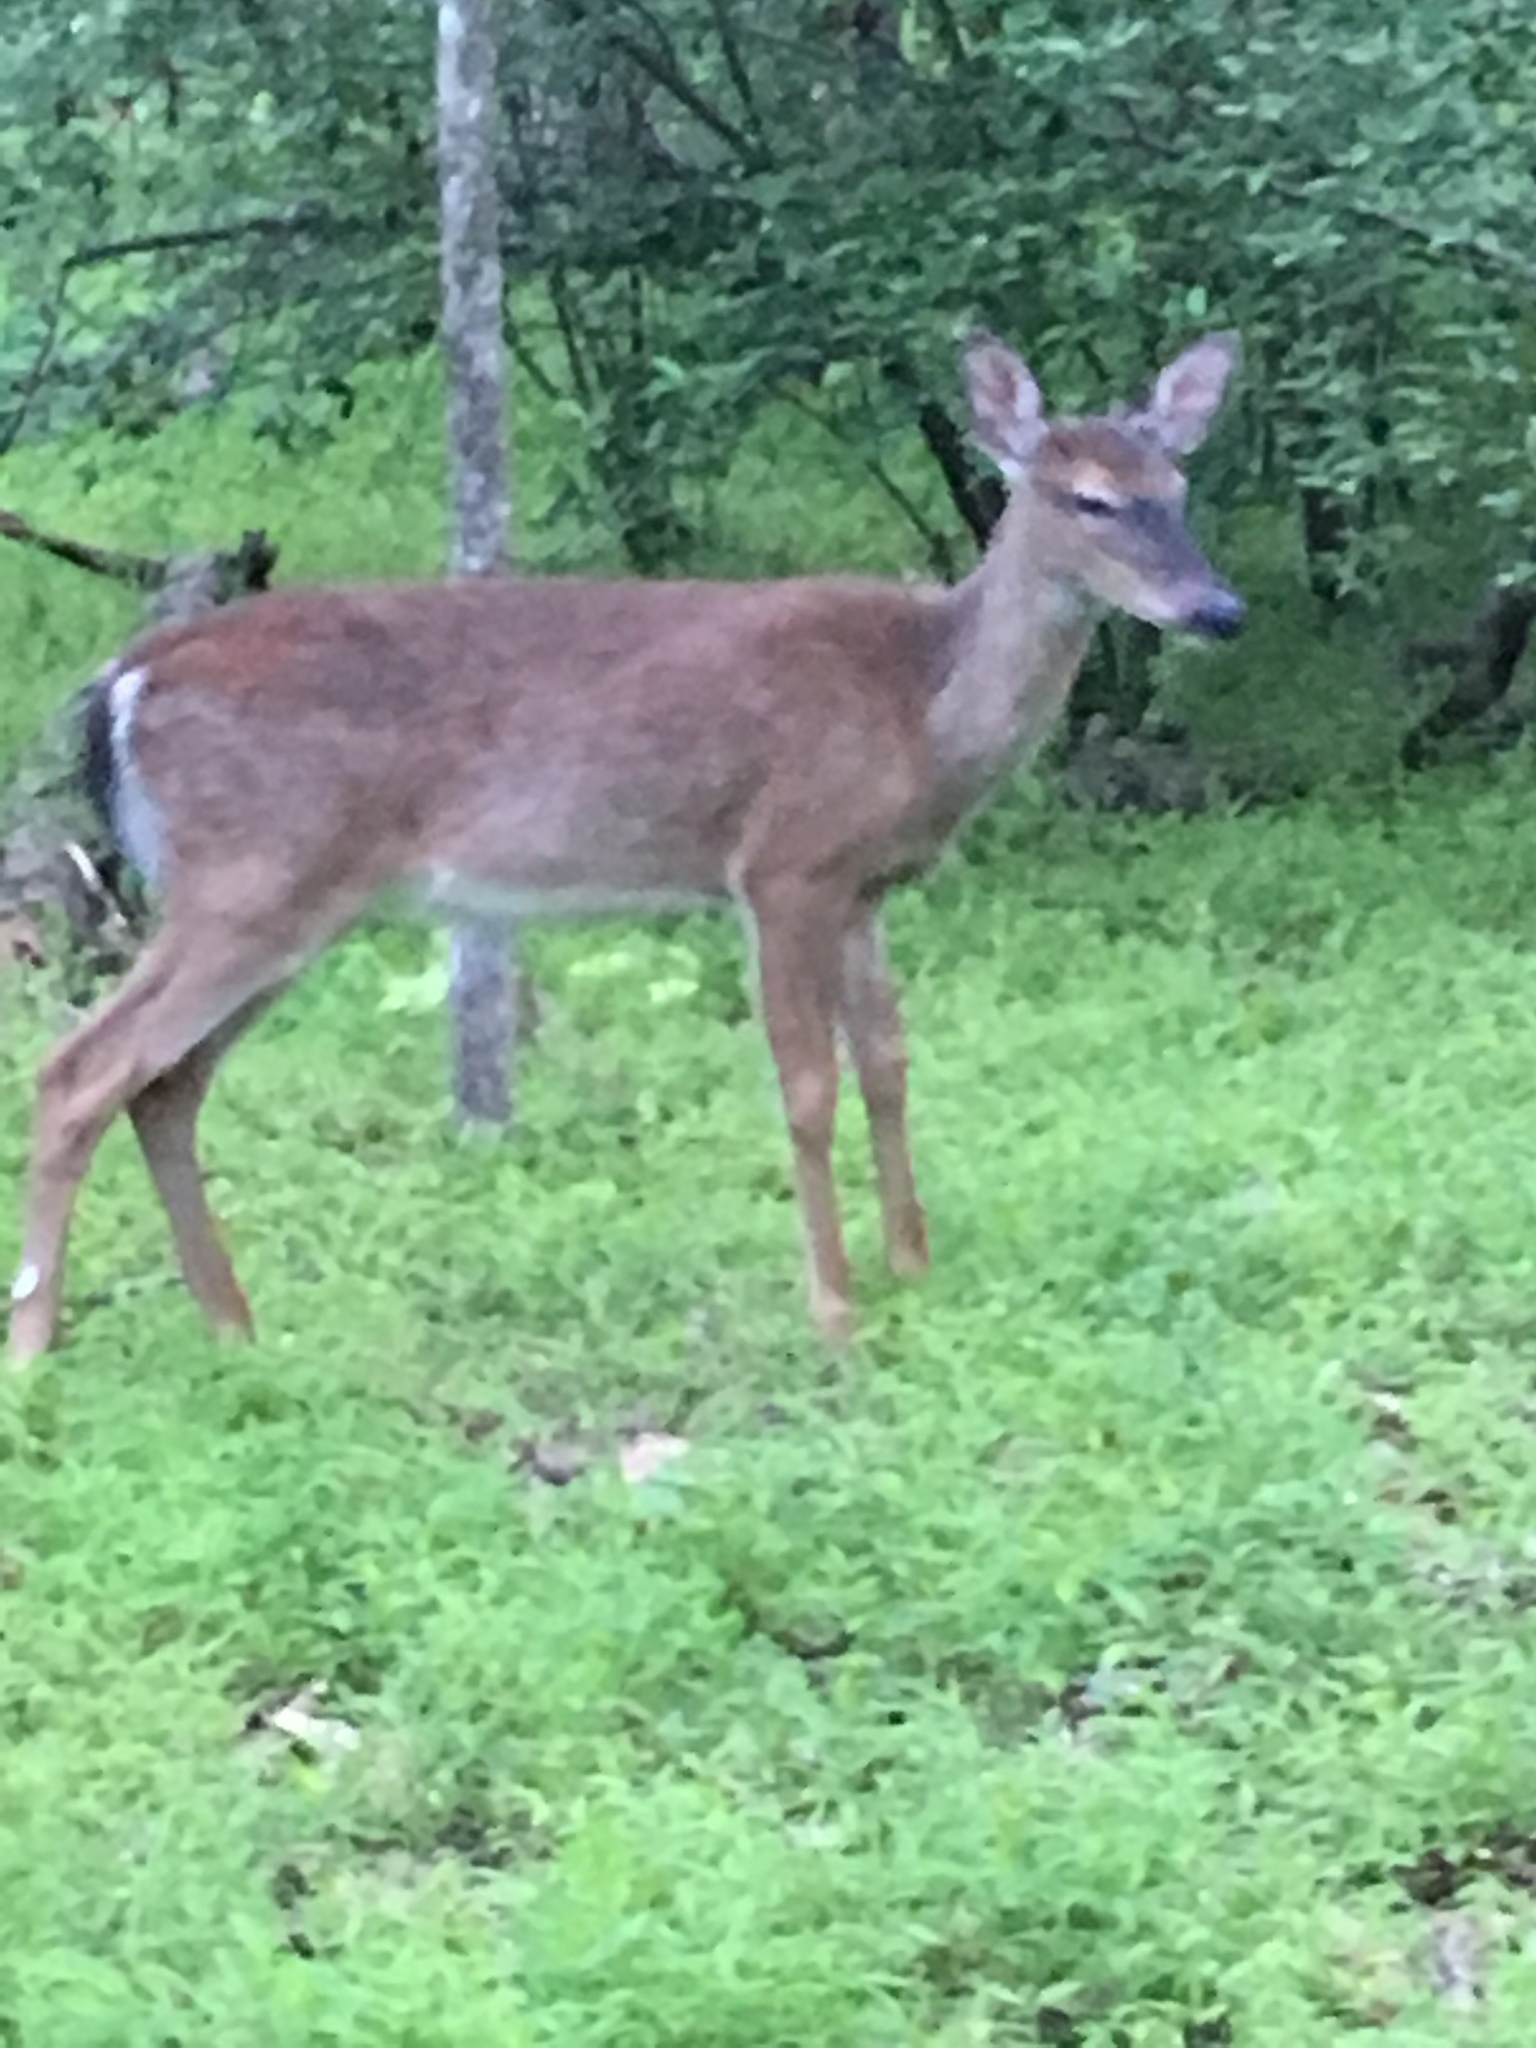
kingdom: Animalia
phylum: Chordata
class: Mammalia
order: Artiodactyla
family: Cervidae
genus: Odocoileus
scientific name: Odocoileus virginianus
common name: White-tailed deer
